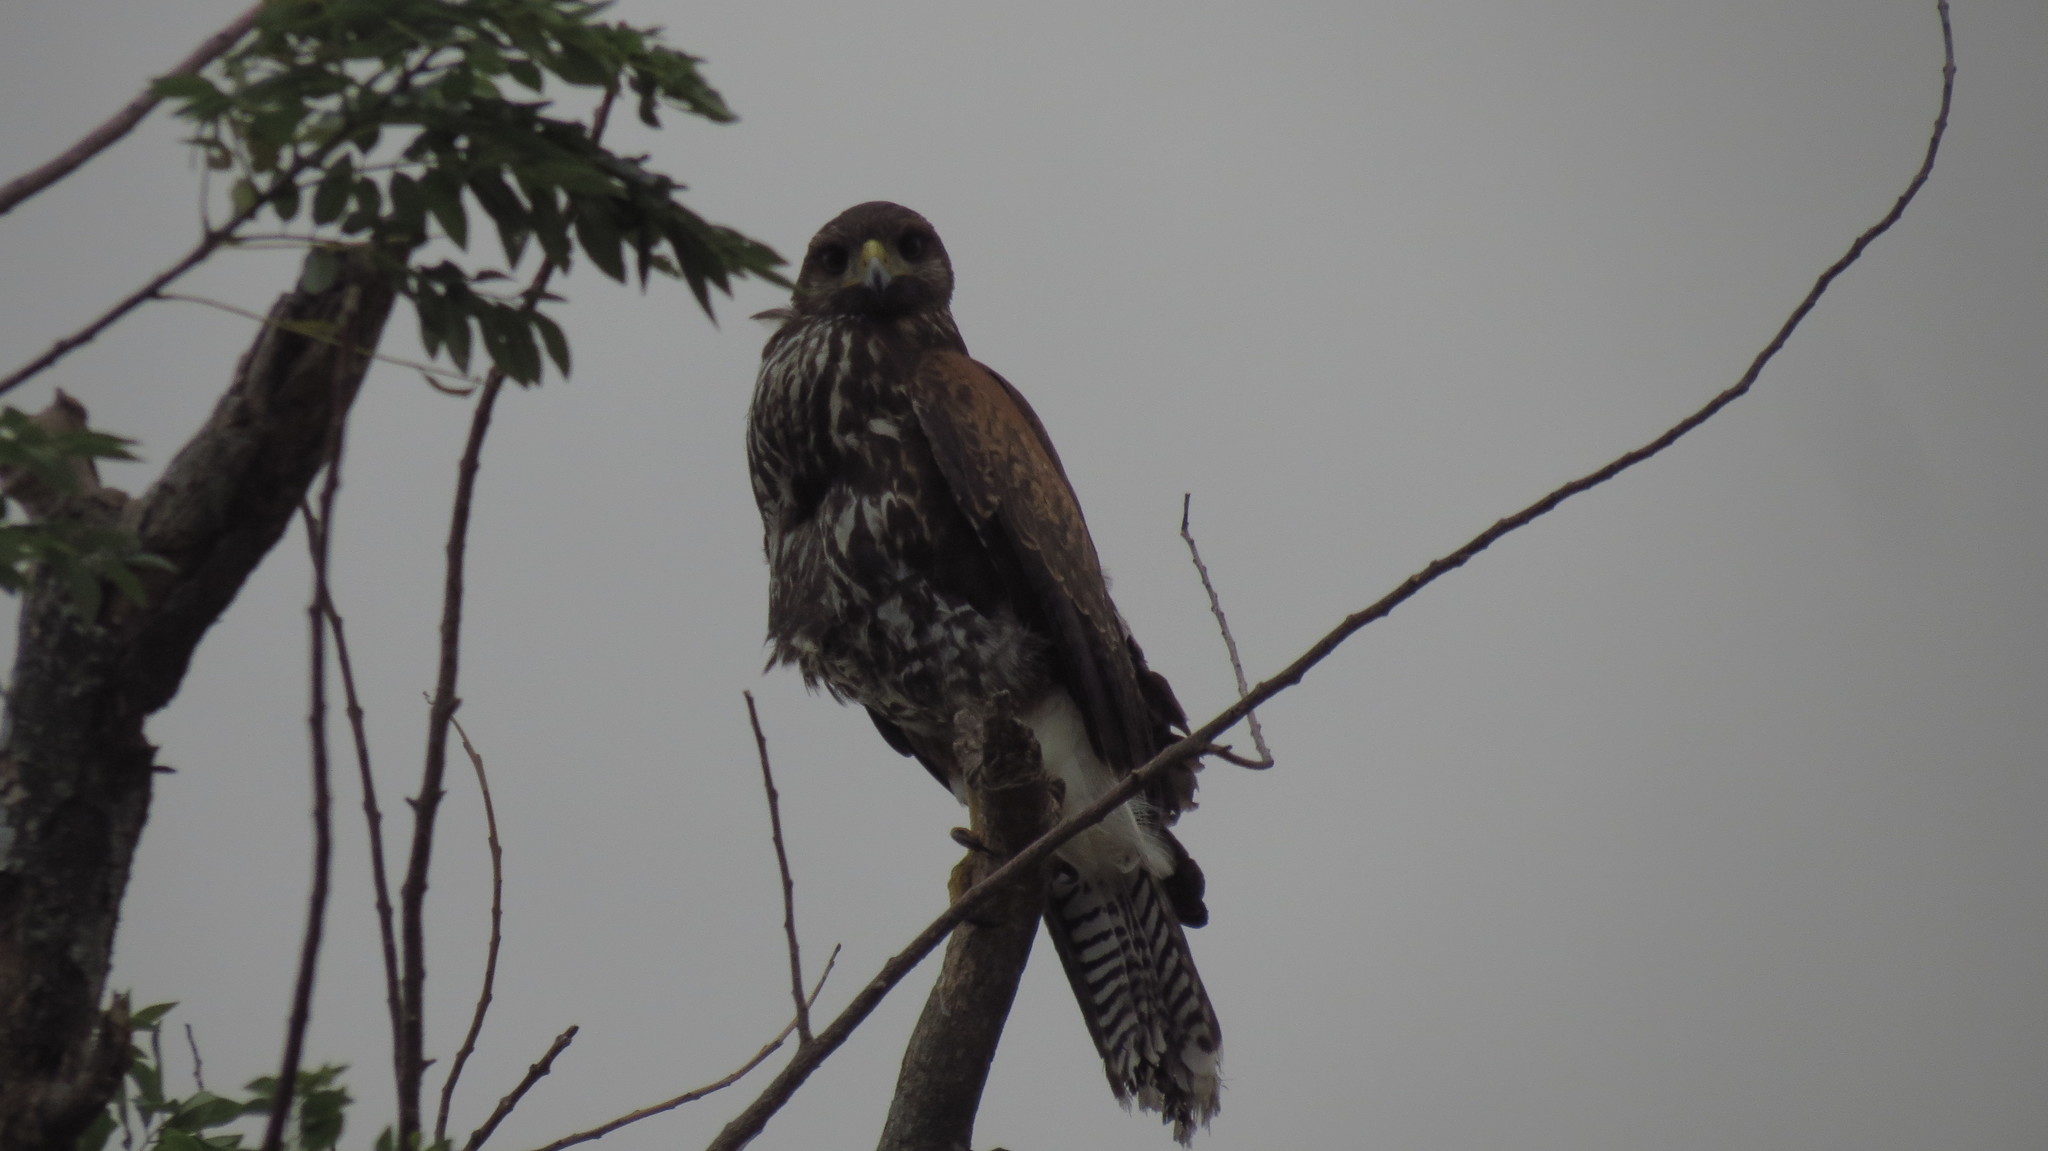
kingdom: Animalia
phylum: Chordata
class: Aves
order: Accipitriformes
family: Accipitridae
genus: Parabuteo
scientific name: Parabuteo unicinctus
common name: Harris's hawk
